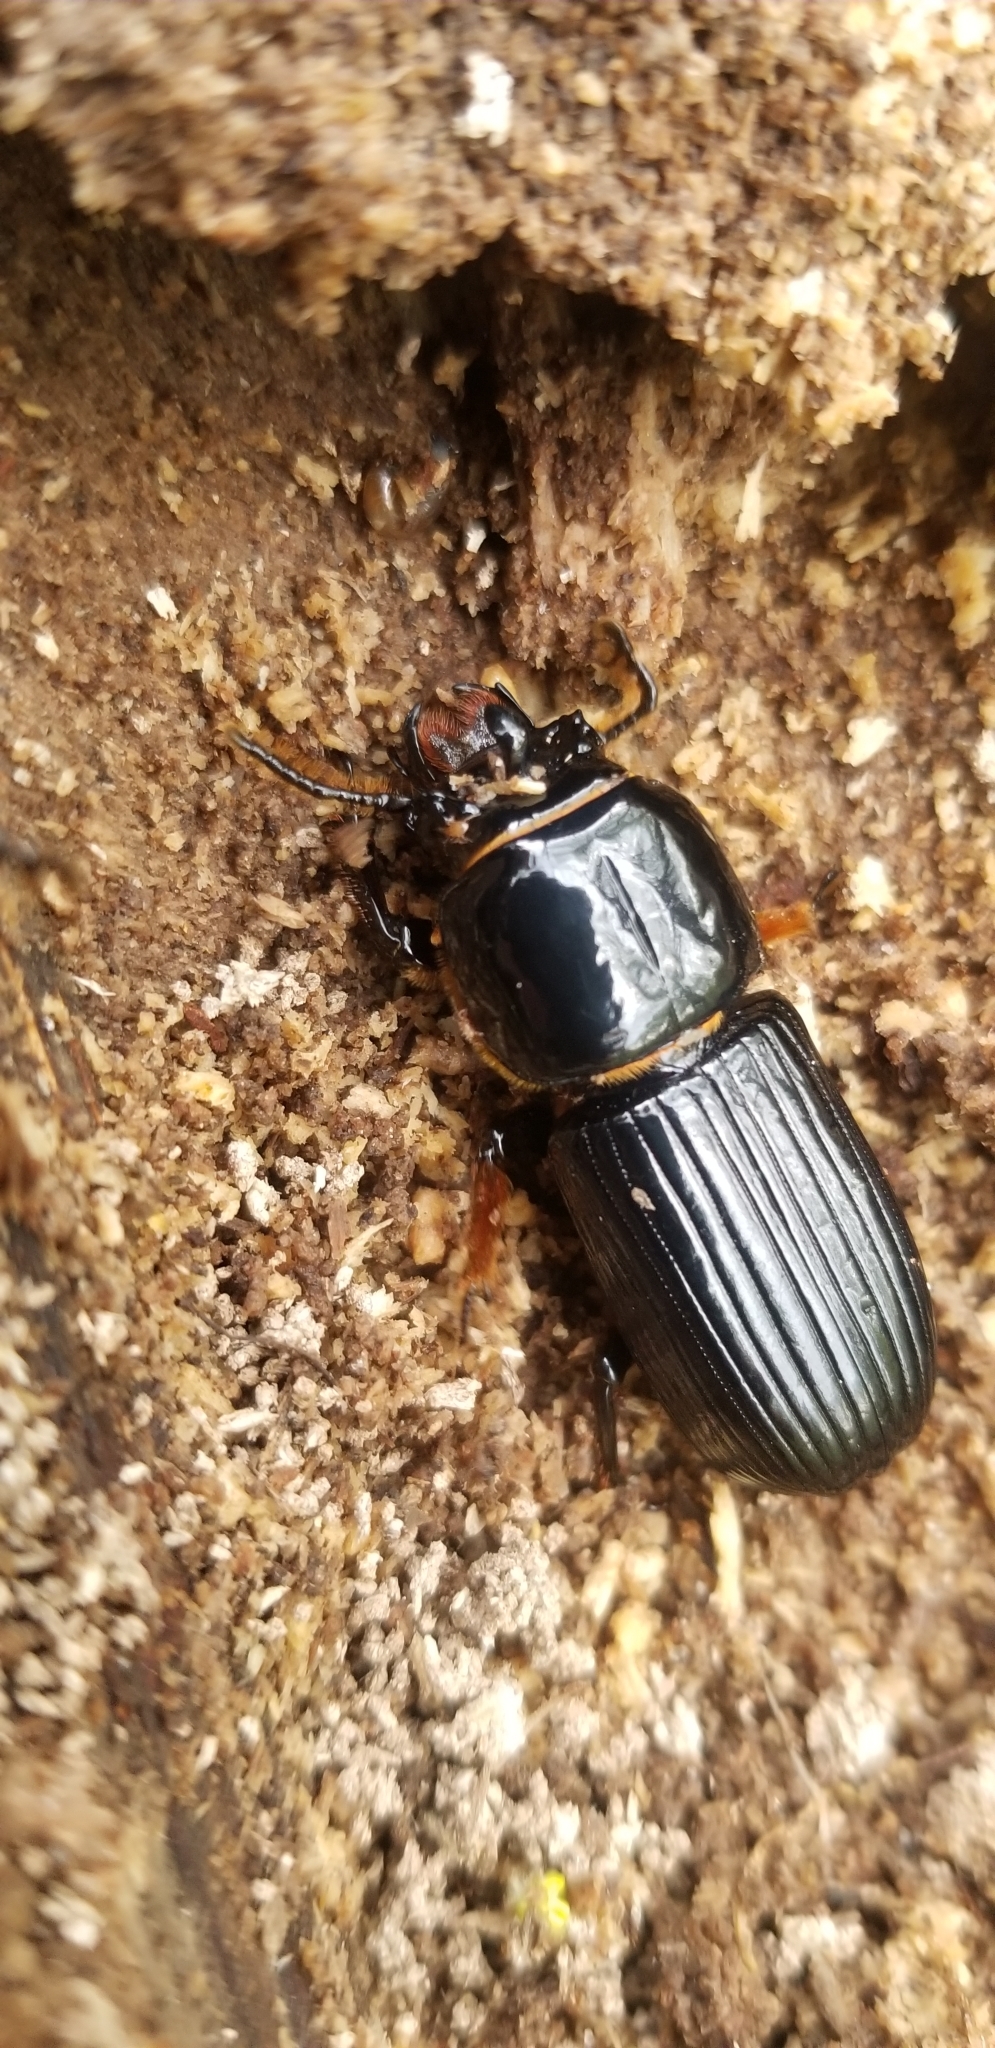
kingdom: Animalia
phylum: Arthropoda
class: Insecta
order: Coleoptera
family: Passalidae
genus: Odontotaenius
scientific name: Odontotaenius disjunctus
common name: Patent leather beetle
